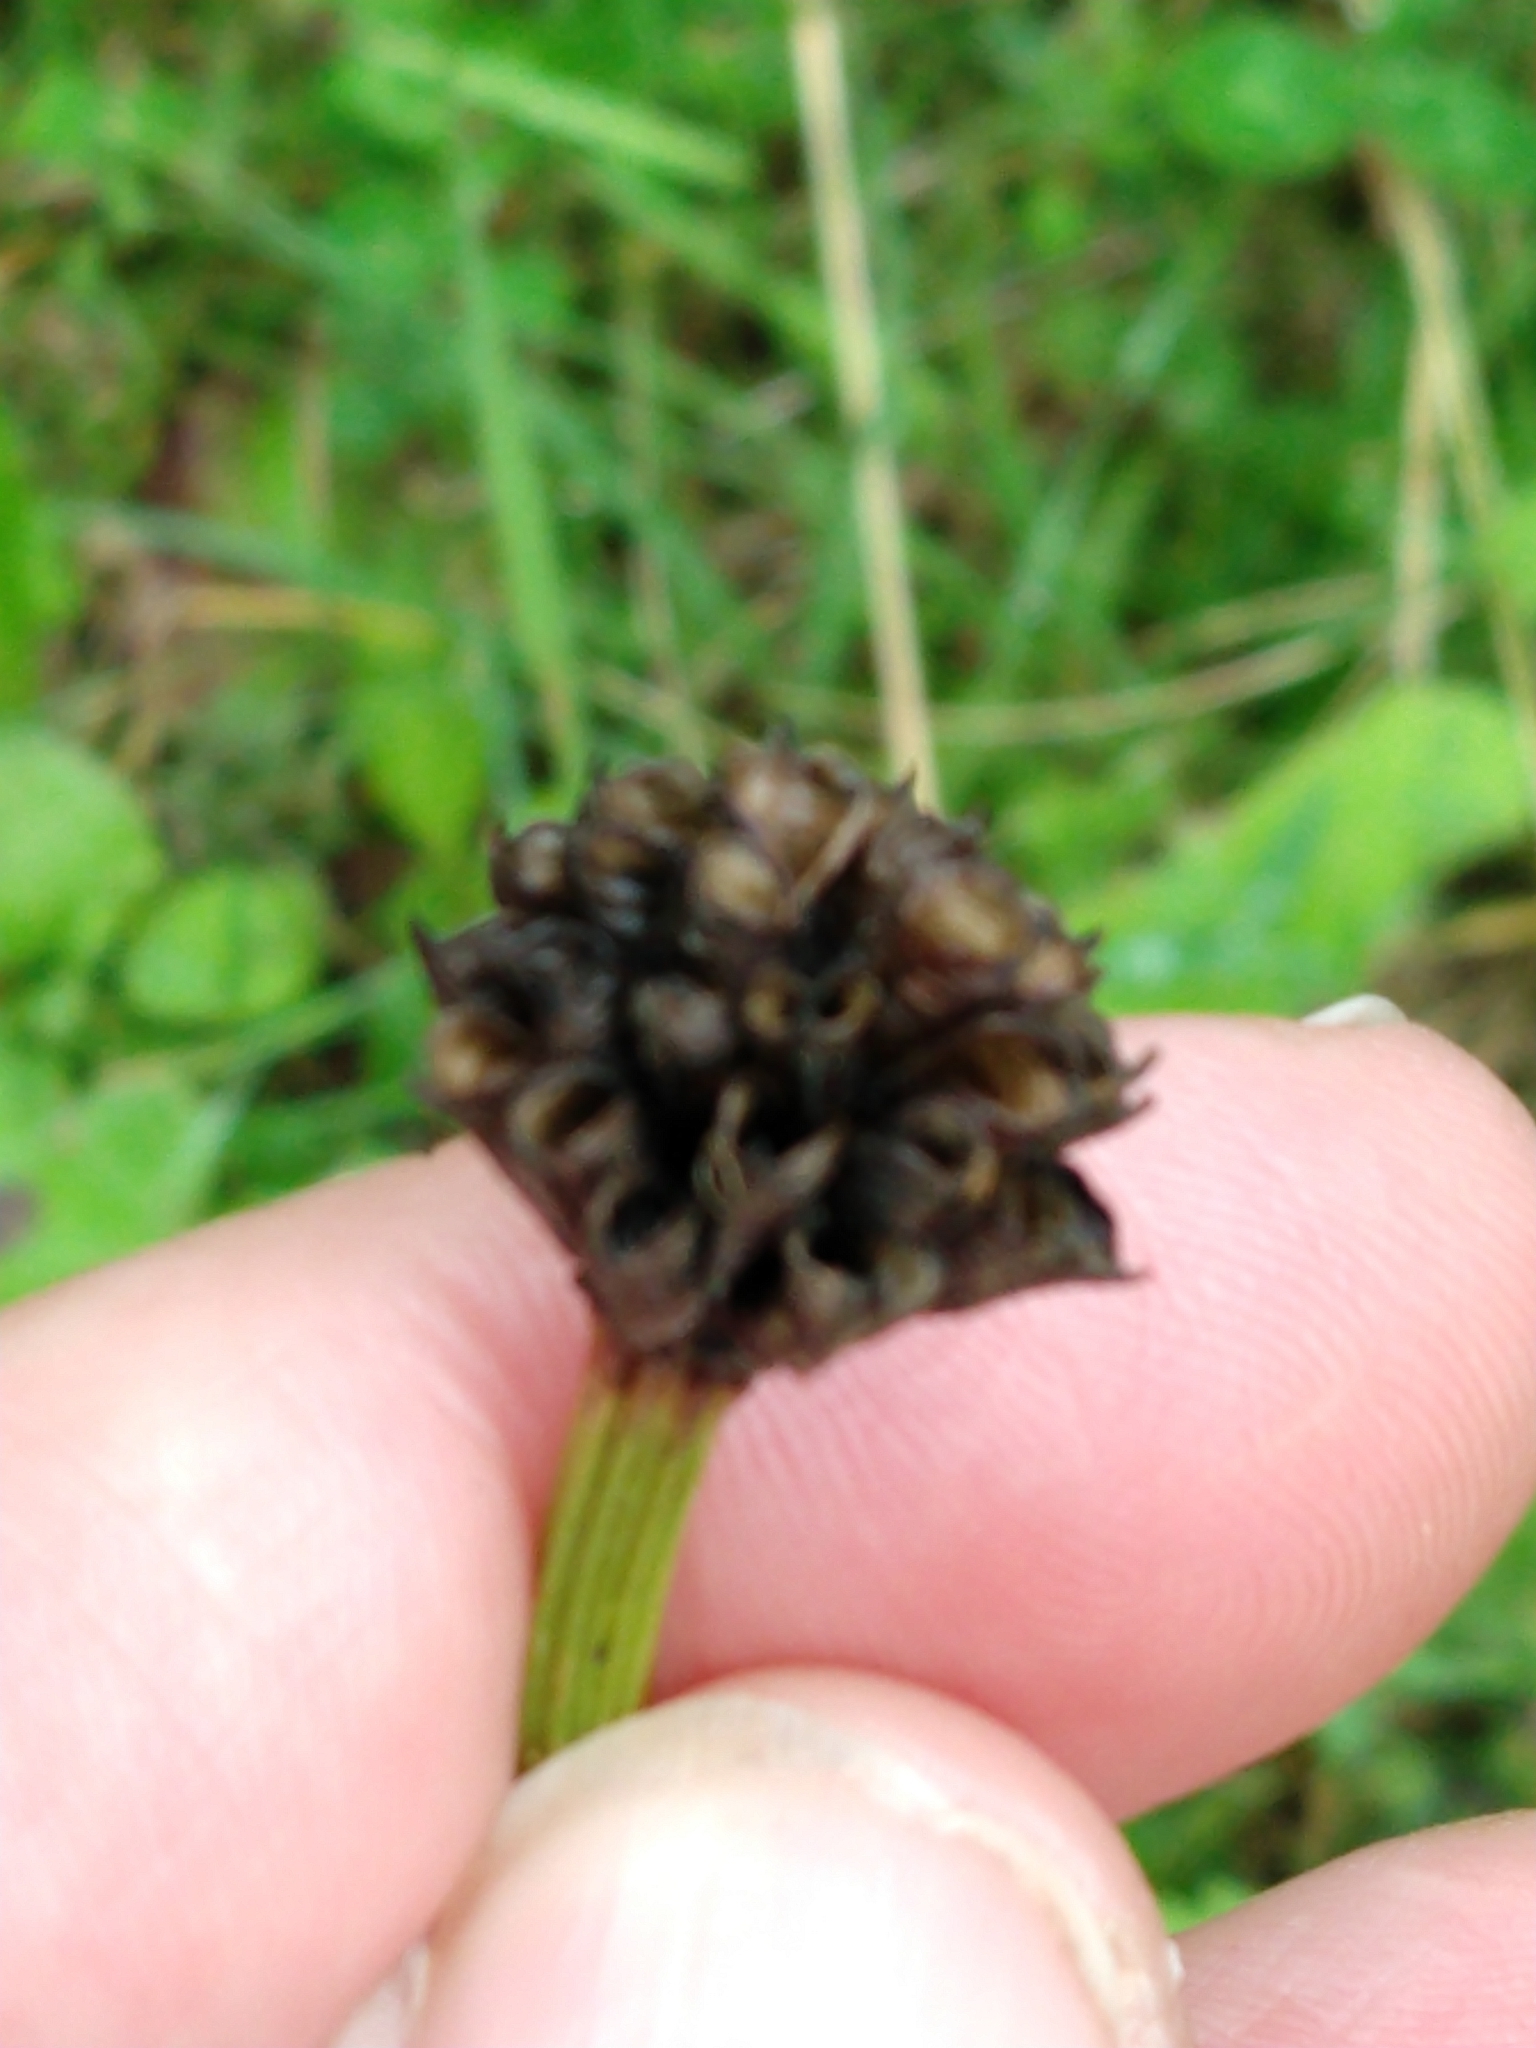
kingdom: Plantae
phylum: Tracheophyta
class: Magnoliopsida
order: Ranunculales
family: Ranunculaceae
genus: Trollius
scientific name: Trollius europaeus
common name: European globeflower
